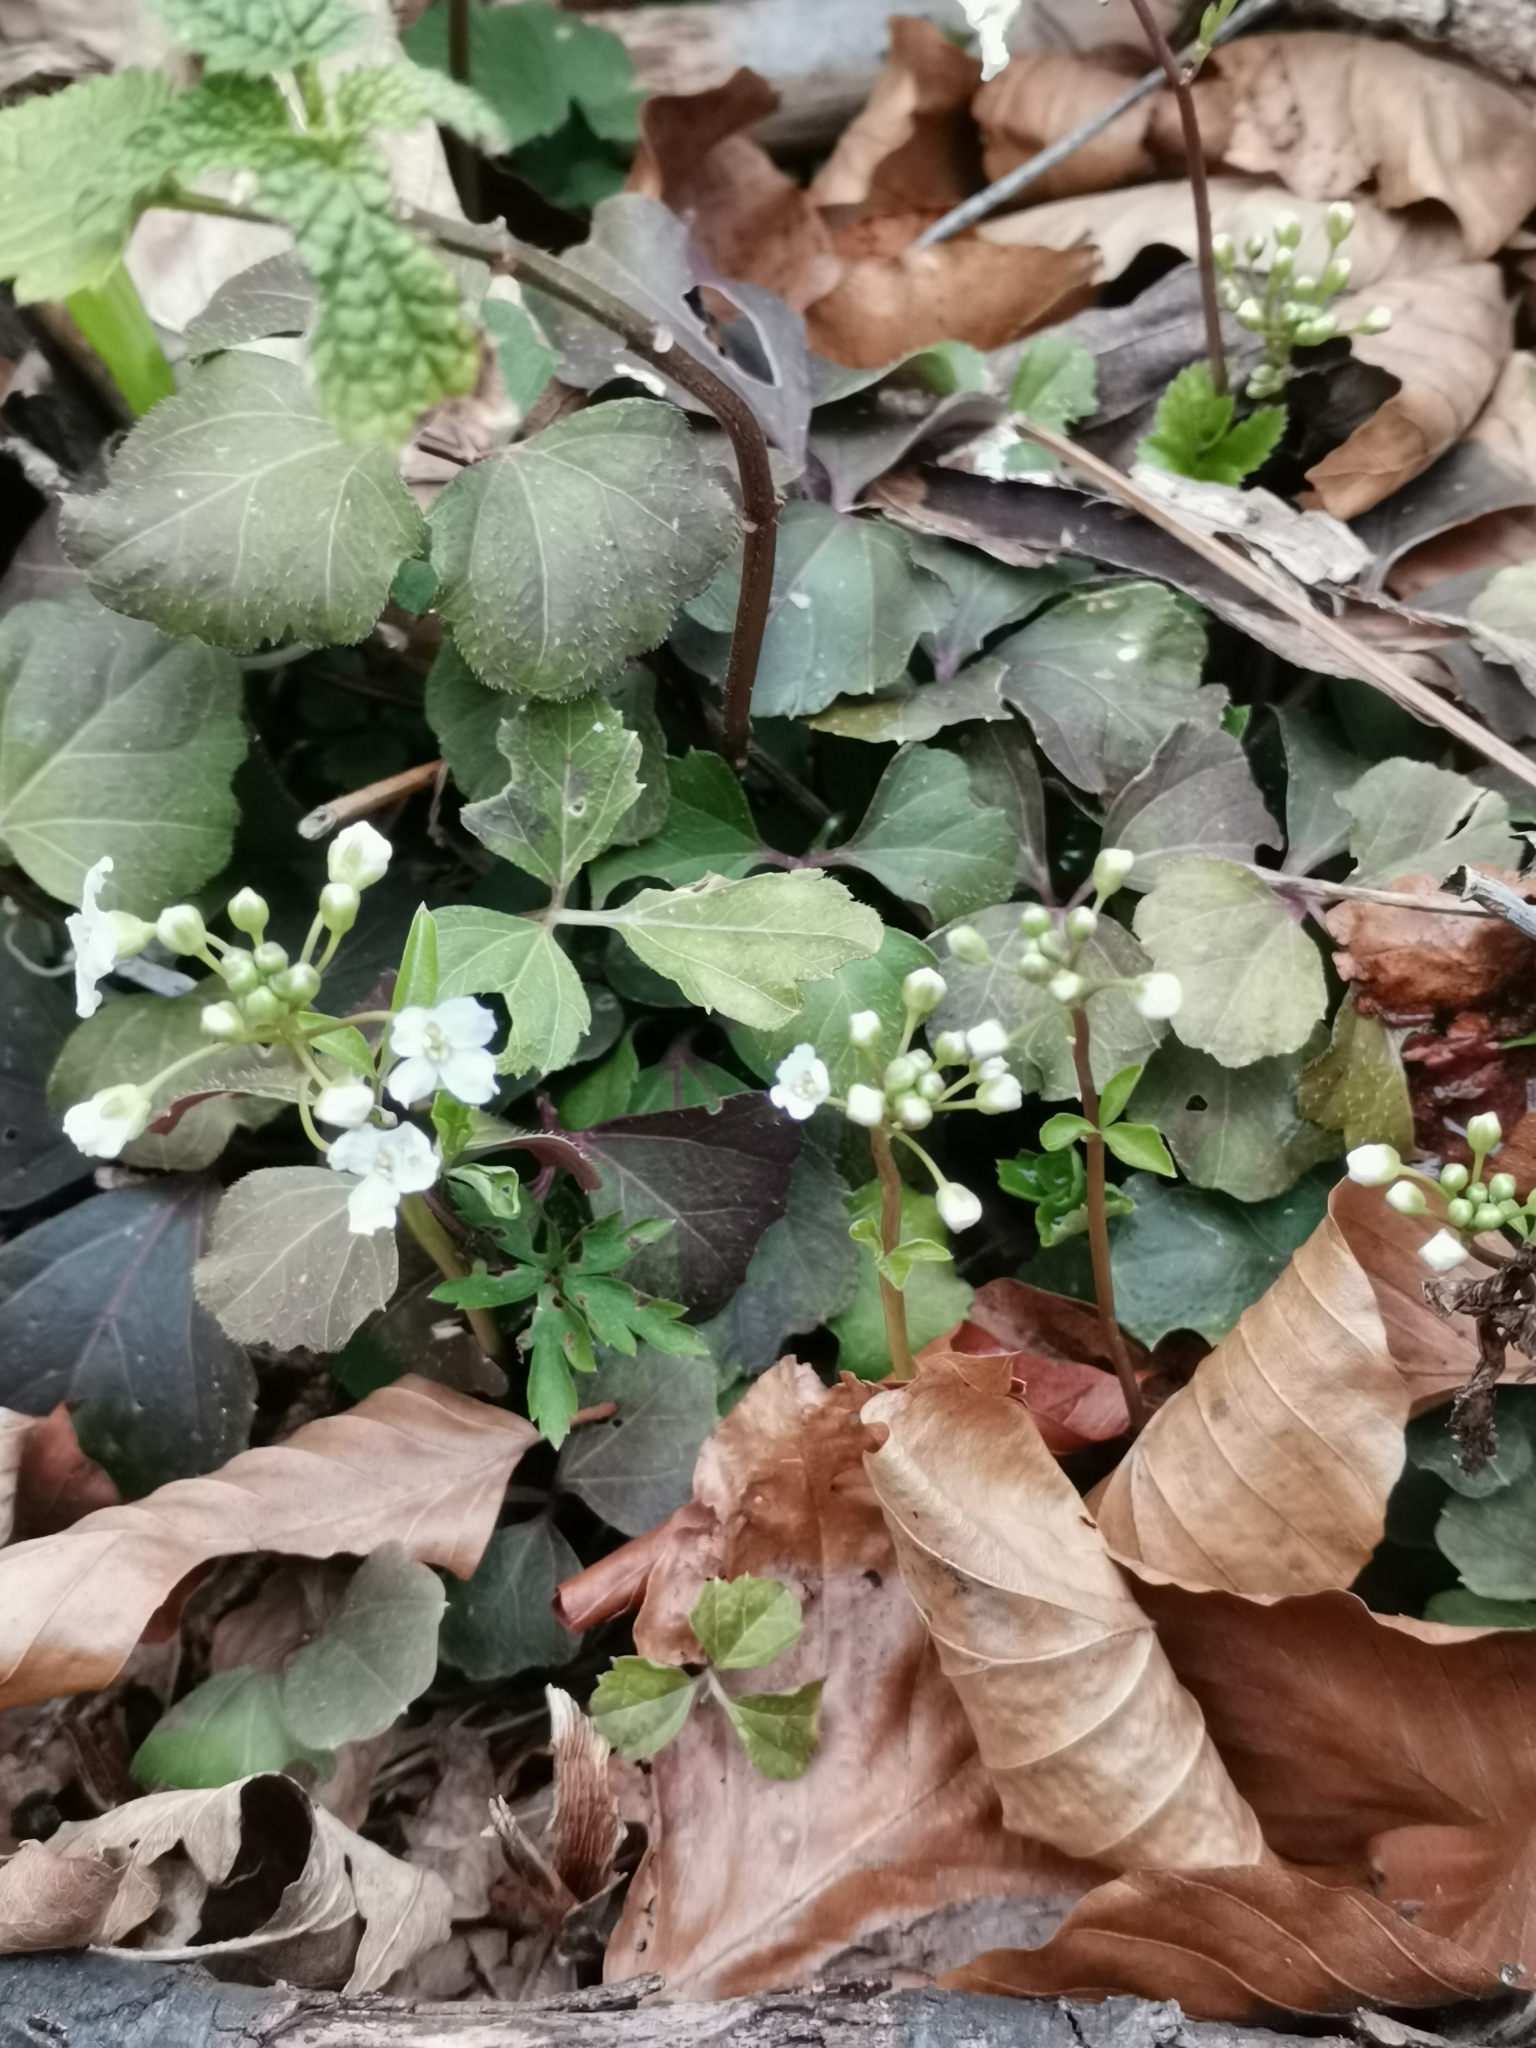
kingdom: Plantae
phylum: Tracheophyta
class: Magnoliopsida
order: Brassicales
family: Brassicaceae
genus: Cardamine
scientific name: Cardamine trifolia
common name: Trefoil cress
